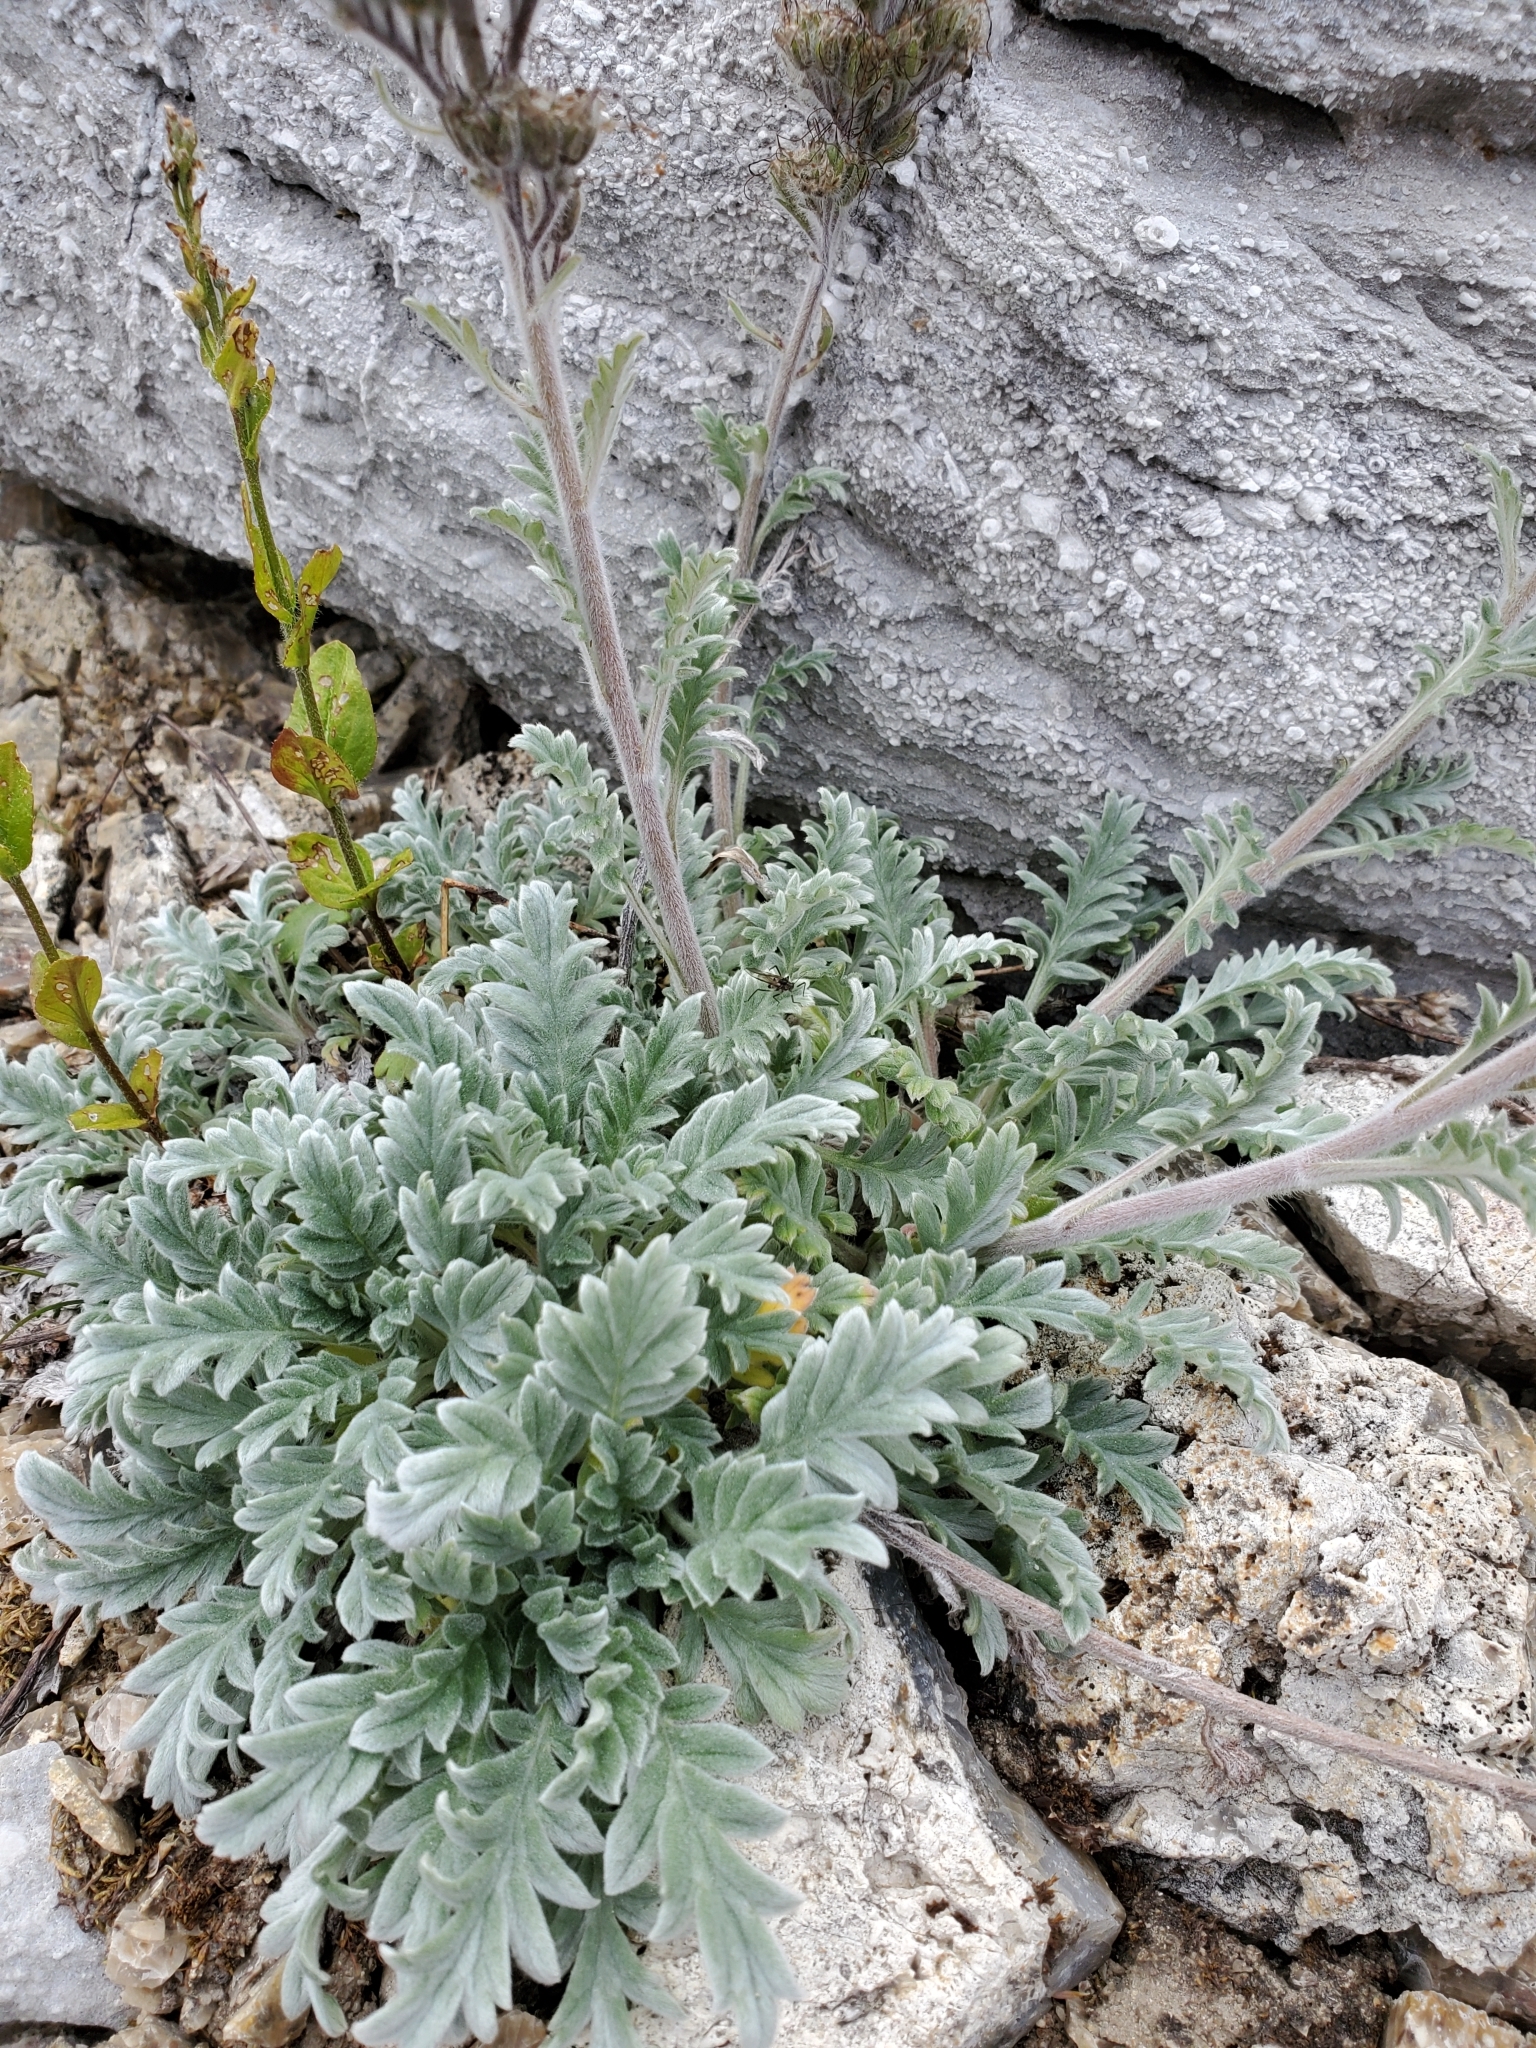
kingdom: Plantae
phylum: Tracheophyta
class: Magnoliopsida
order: Boraginales
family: Hydrophyllaceae
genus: Phacelia
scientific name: Phacelia sericea
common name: Silky phacelia
